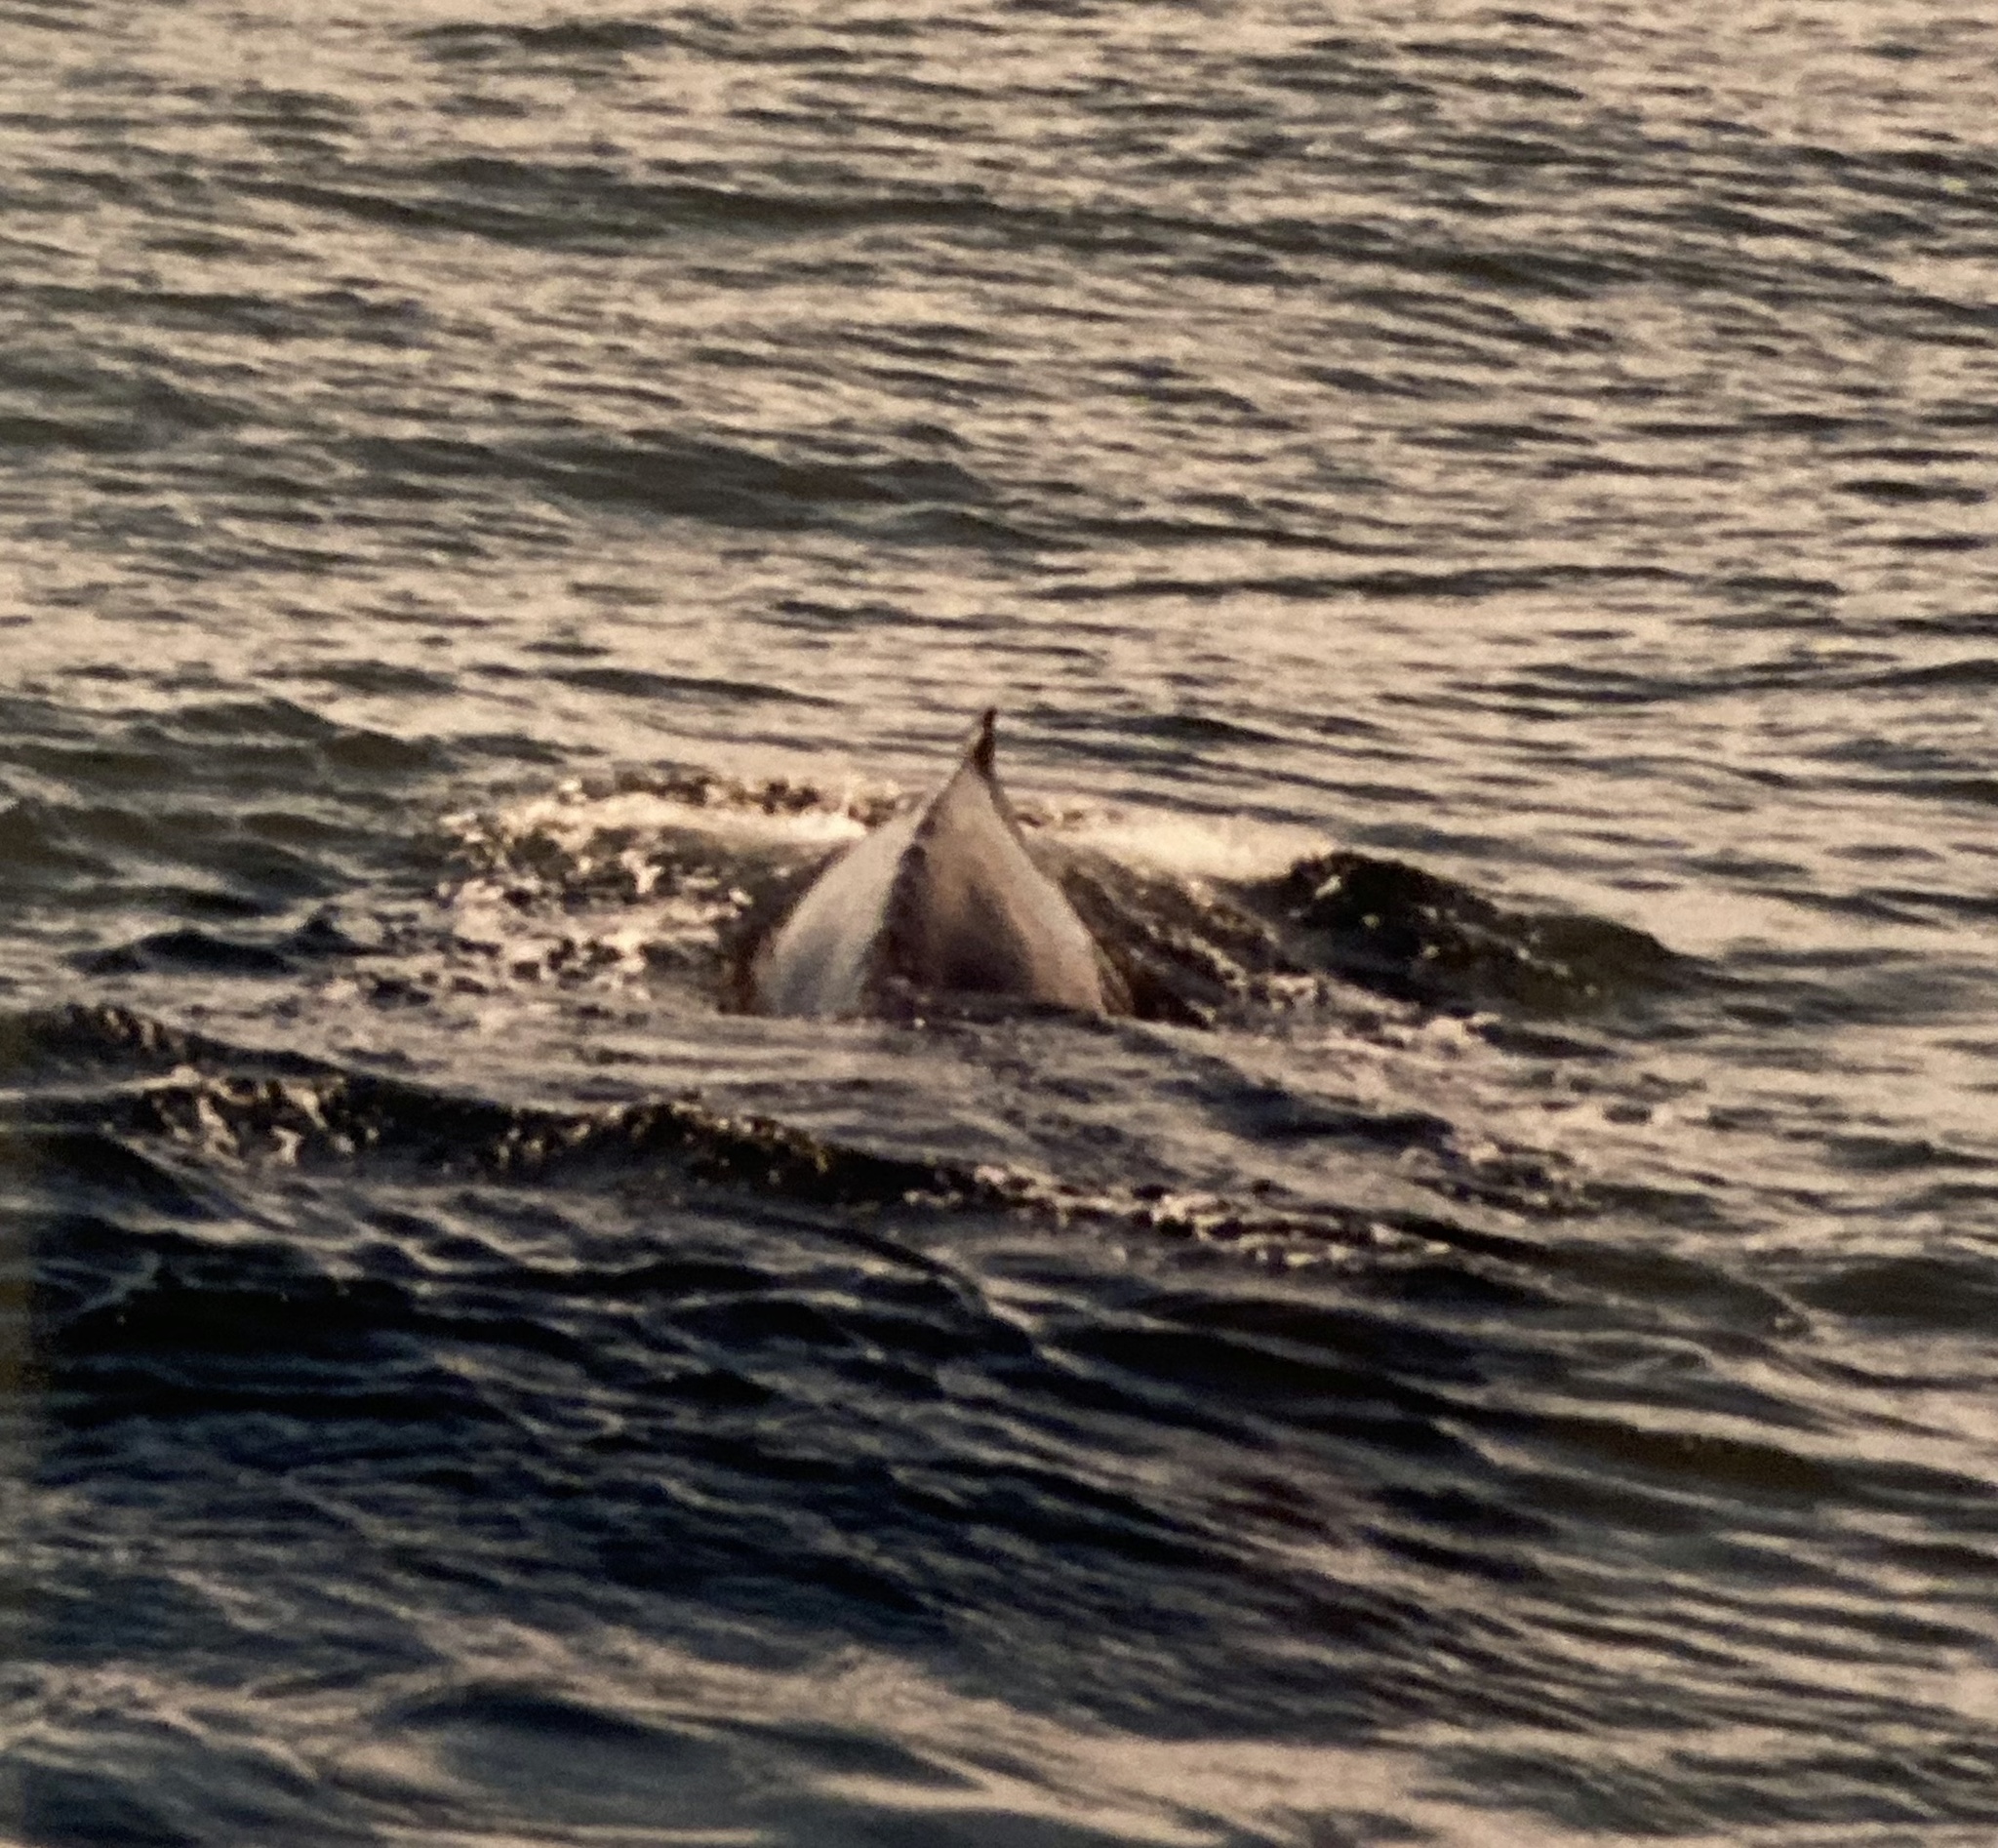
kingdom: Animalia
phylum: Chordata
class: Mammalia
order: Cetacea
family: Balaenopteridae
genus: Megaptera
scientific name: Megaptera novaeangliae
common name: Humpback whale
